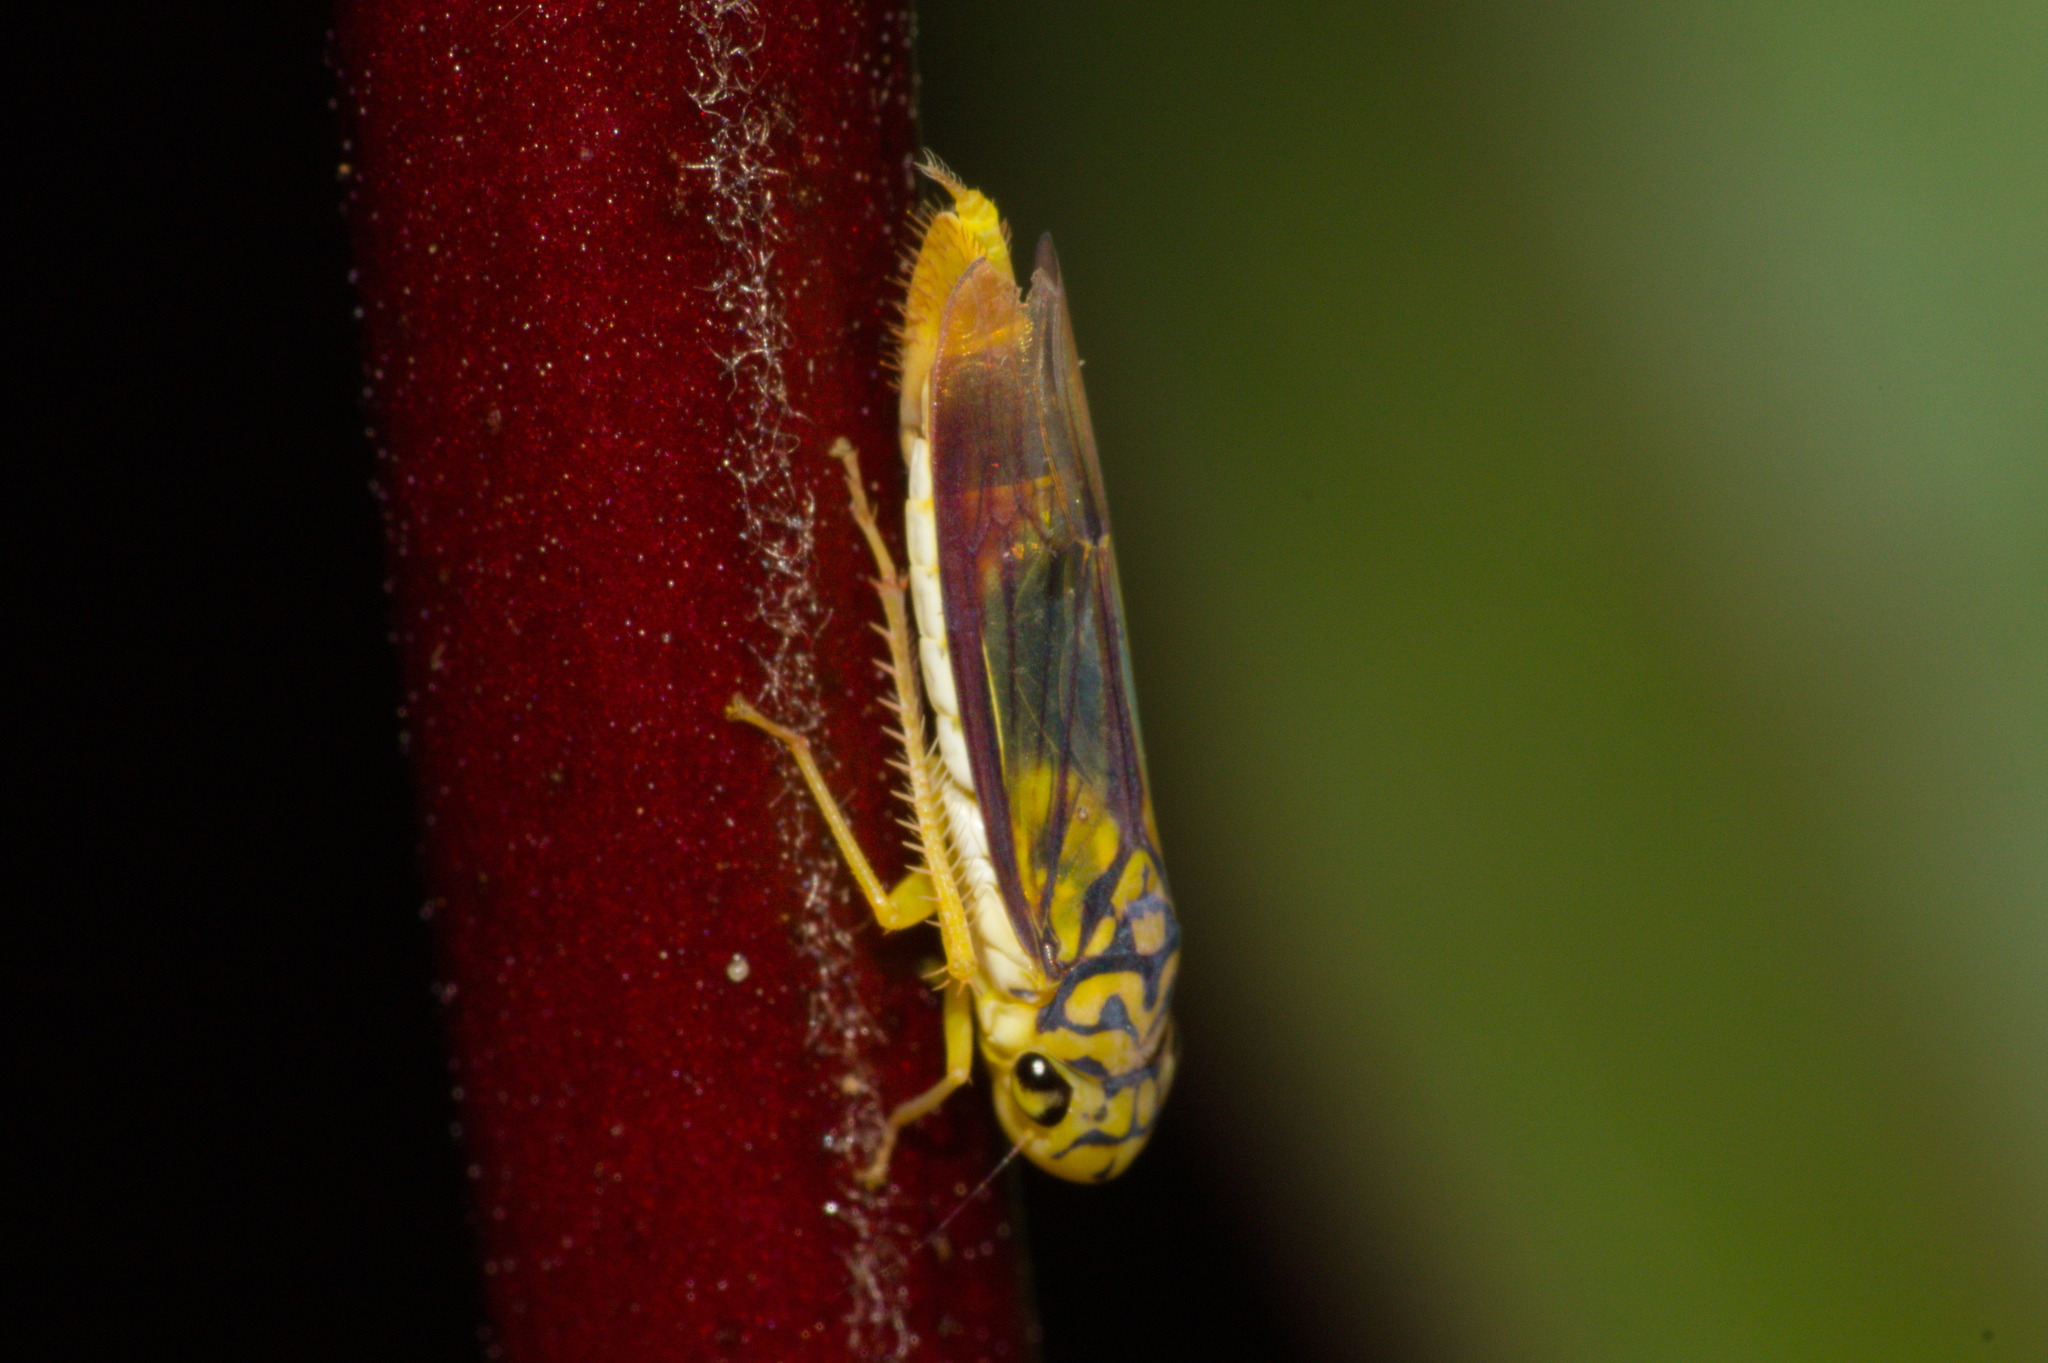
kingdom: Animalia
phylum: Arthropoda
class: Insecta
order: Hemiptera
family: Cicadellidae
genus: Dilobopterus
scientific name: Dilobopterus costalimai
